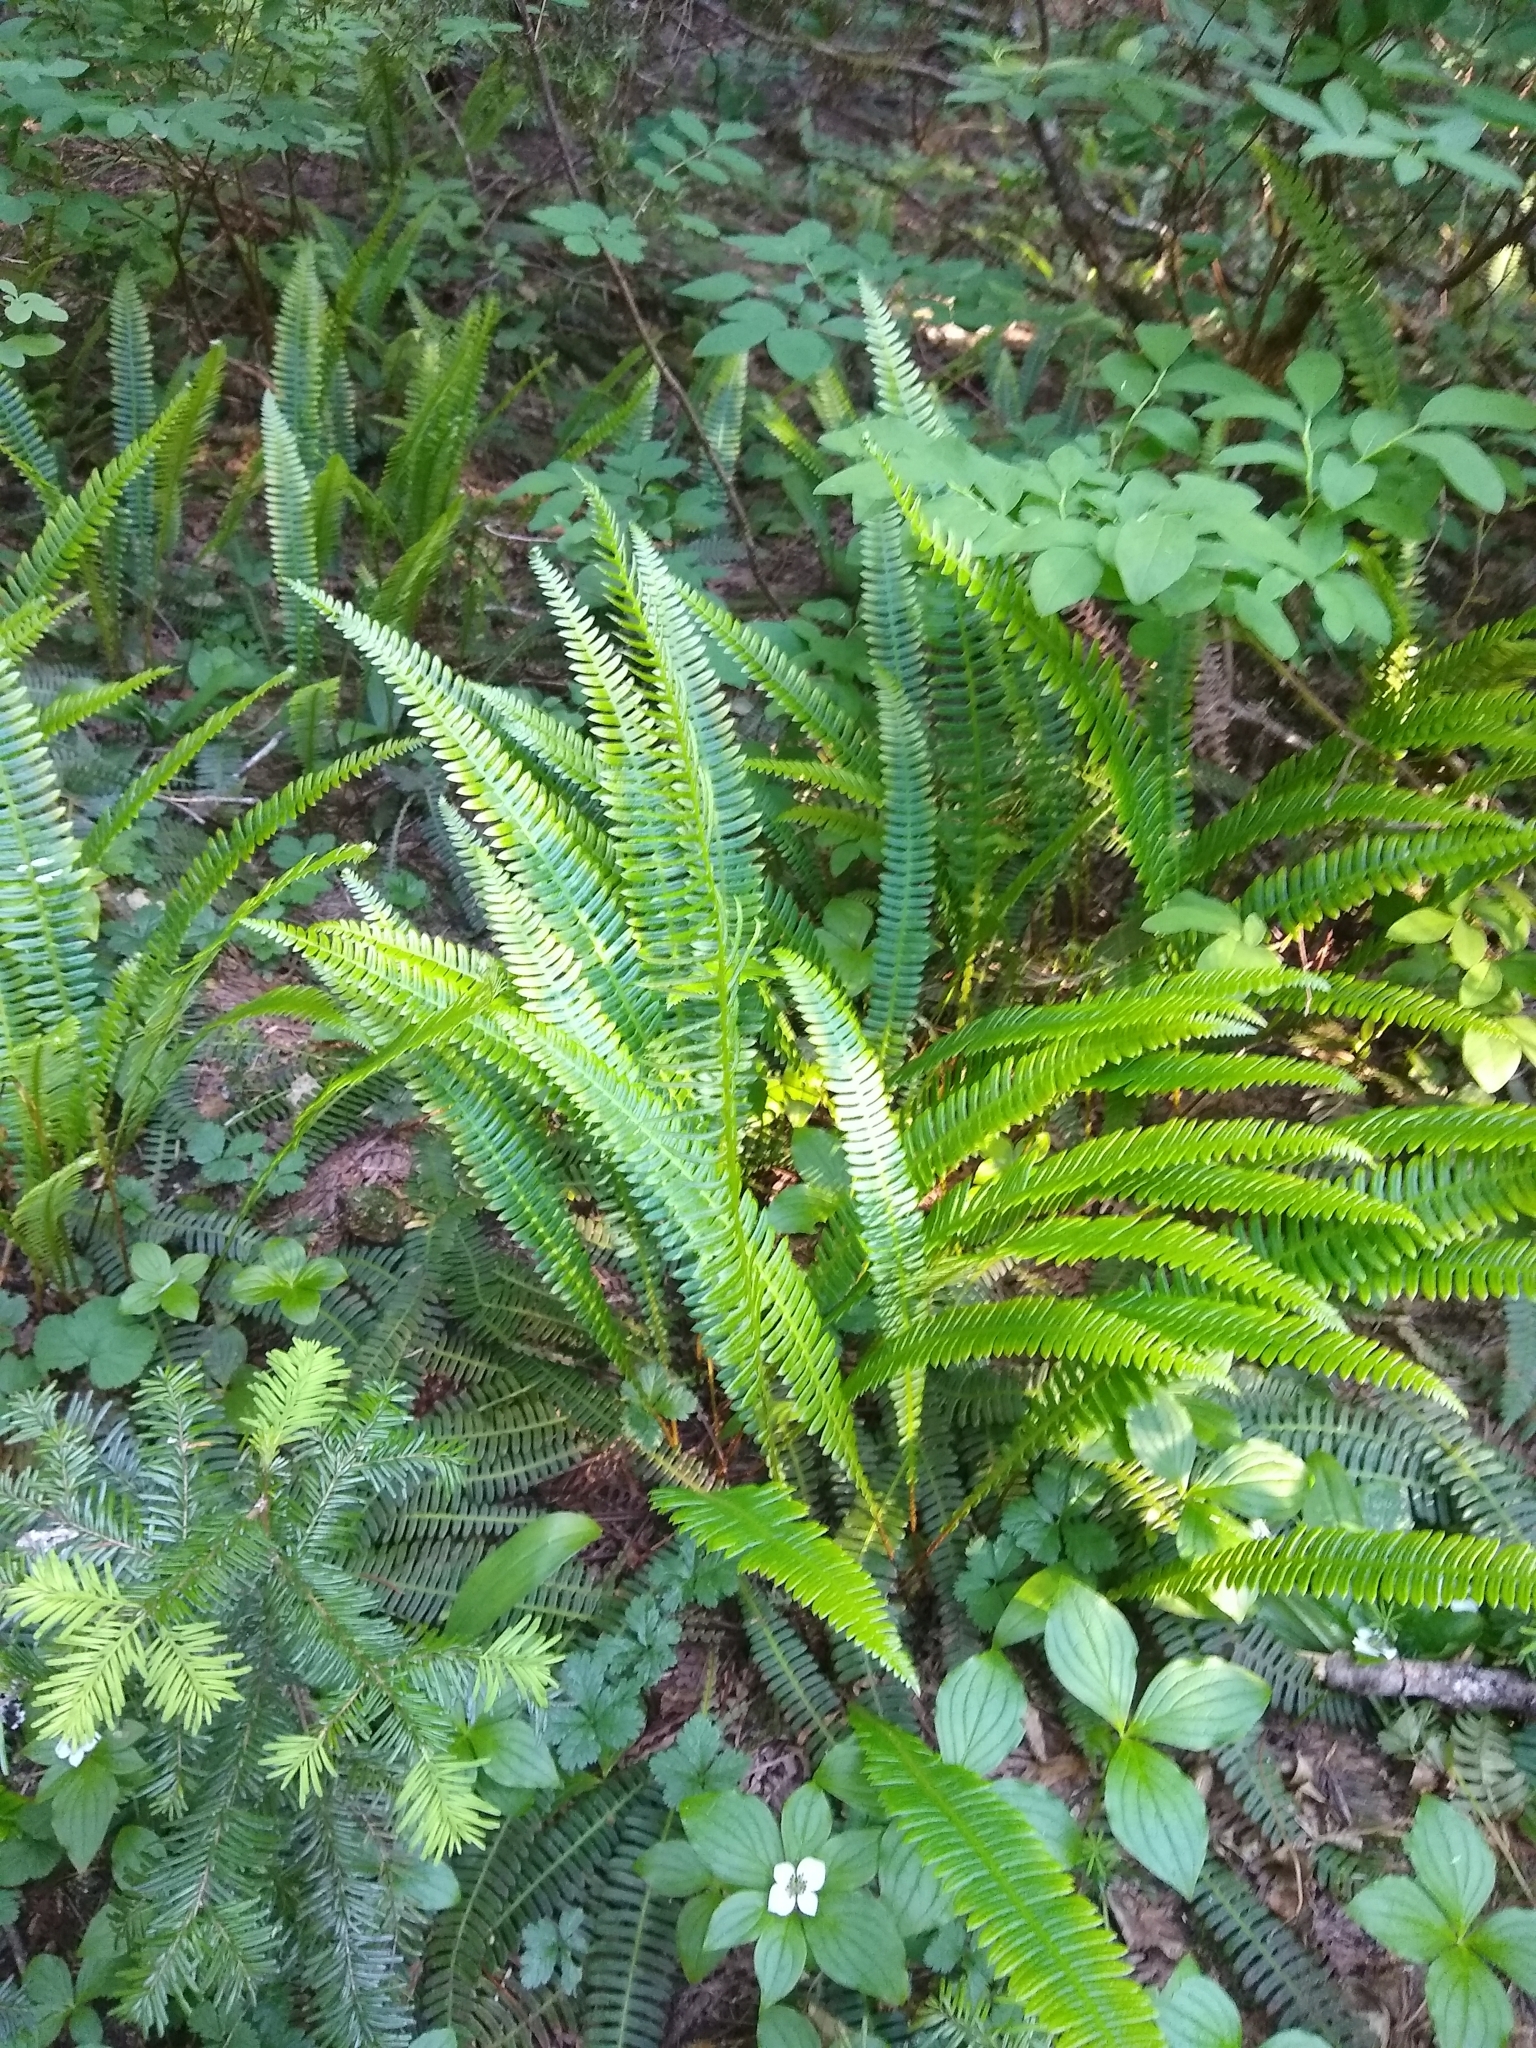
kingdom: Plantae
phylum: Tracheophyta
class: Polypodiopsida
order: Polypodiales
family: Blechnaceae
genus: Struthiopteris
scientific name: Struthiopteris spicant
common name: Deer fern
